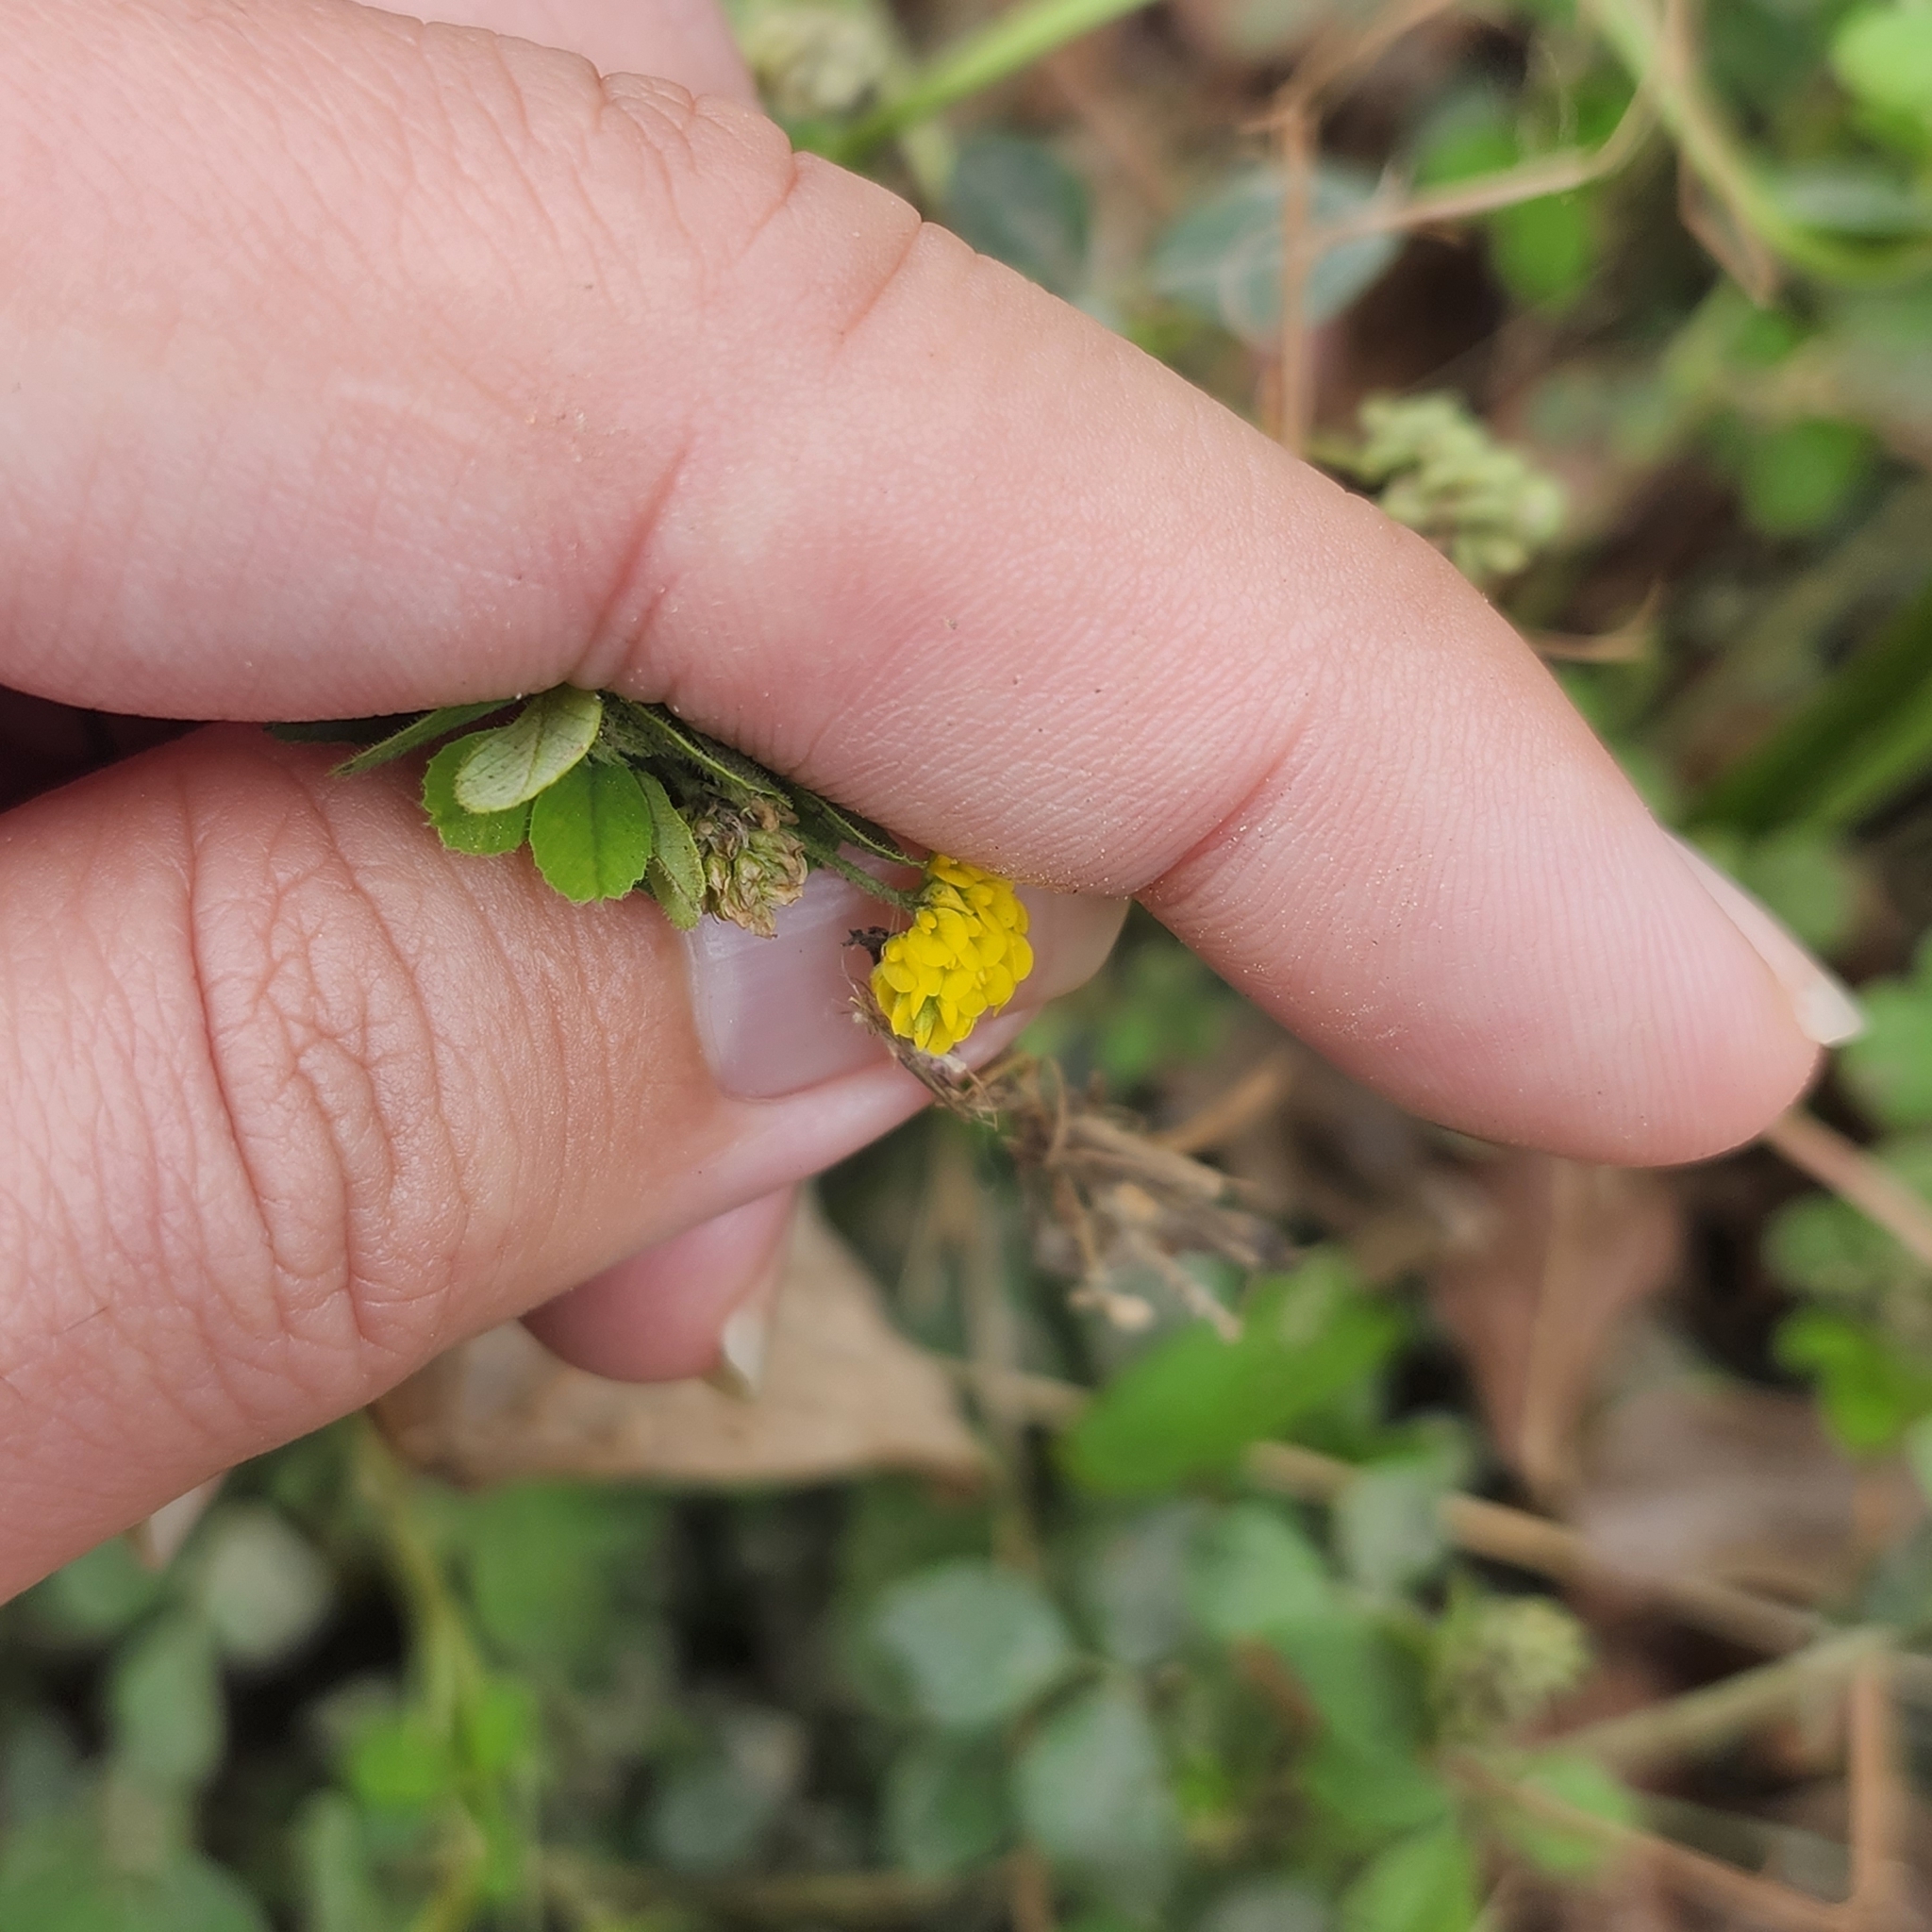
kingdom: Plantae
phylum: Tracheophyta
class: Magnoliopsida
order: Fabales
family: Fabaceae
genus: Medicago
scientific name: Medicago lupulina
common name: Black medick
